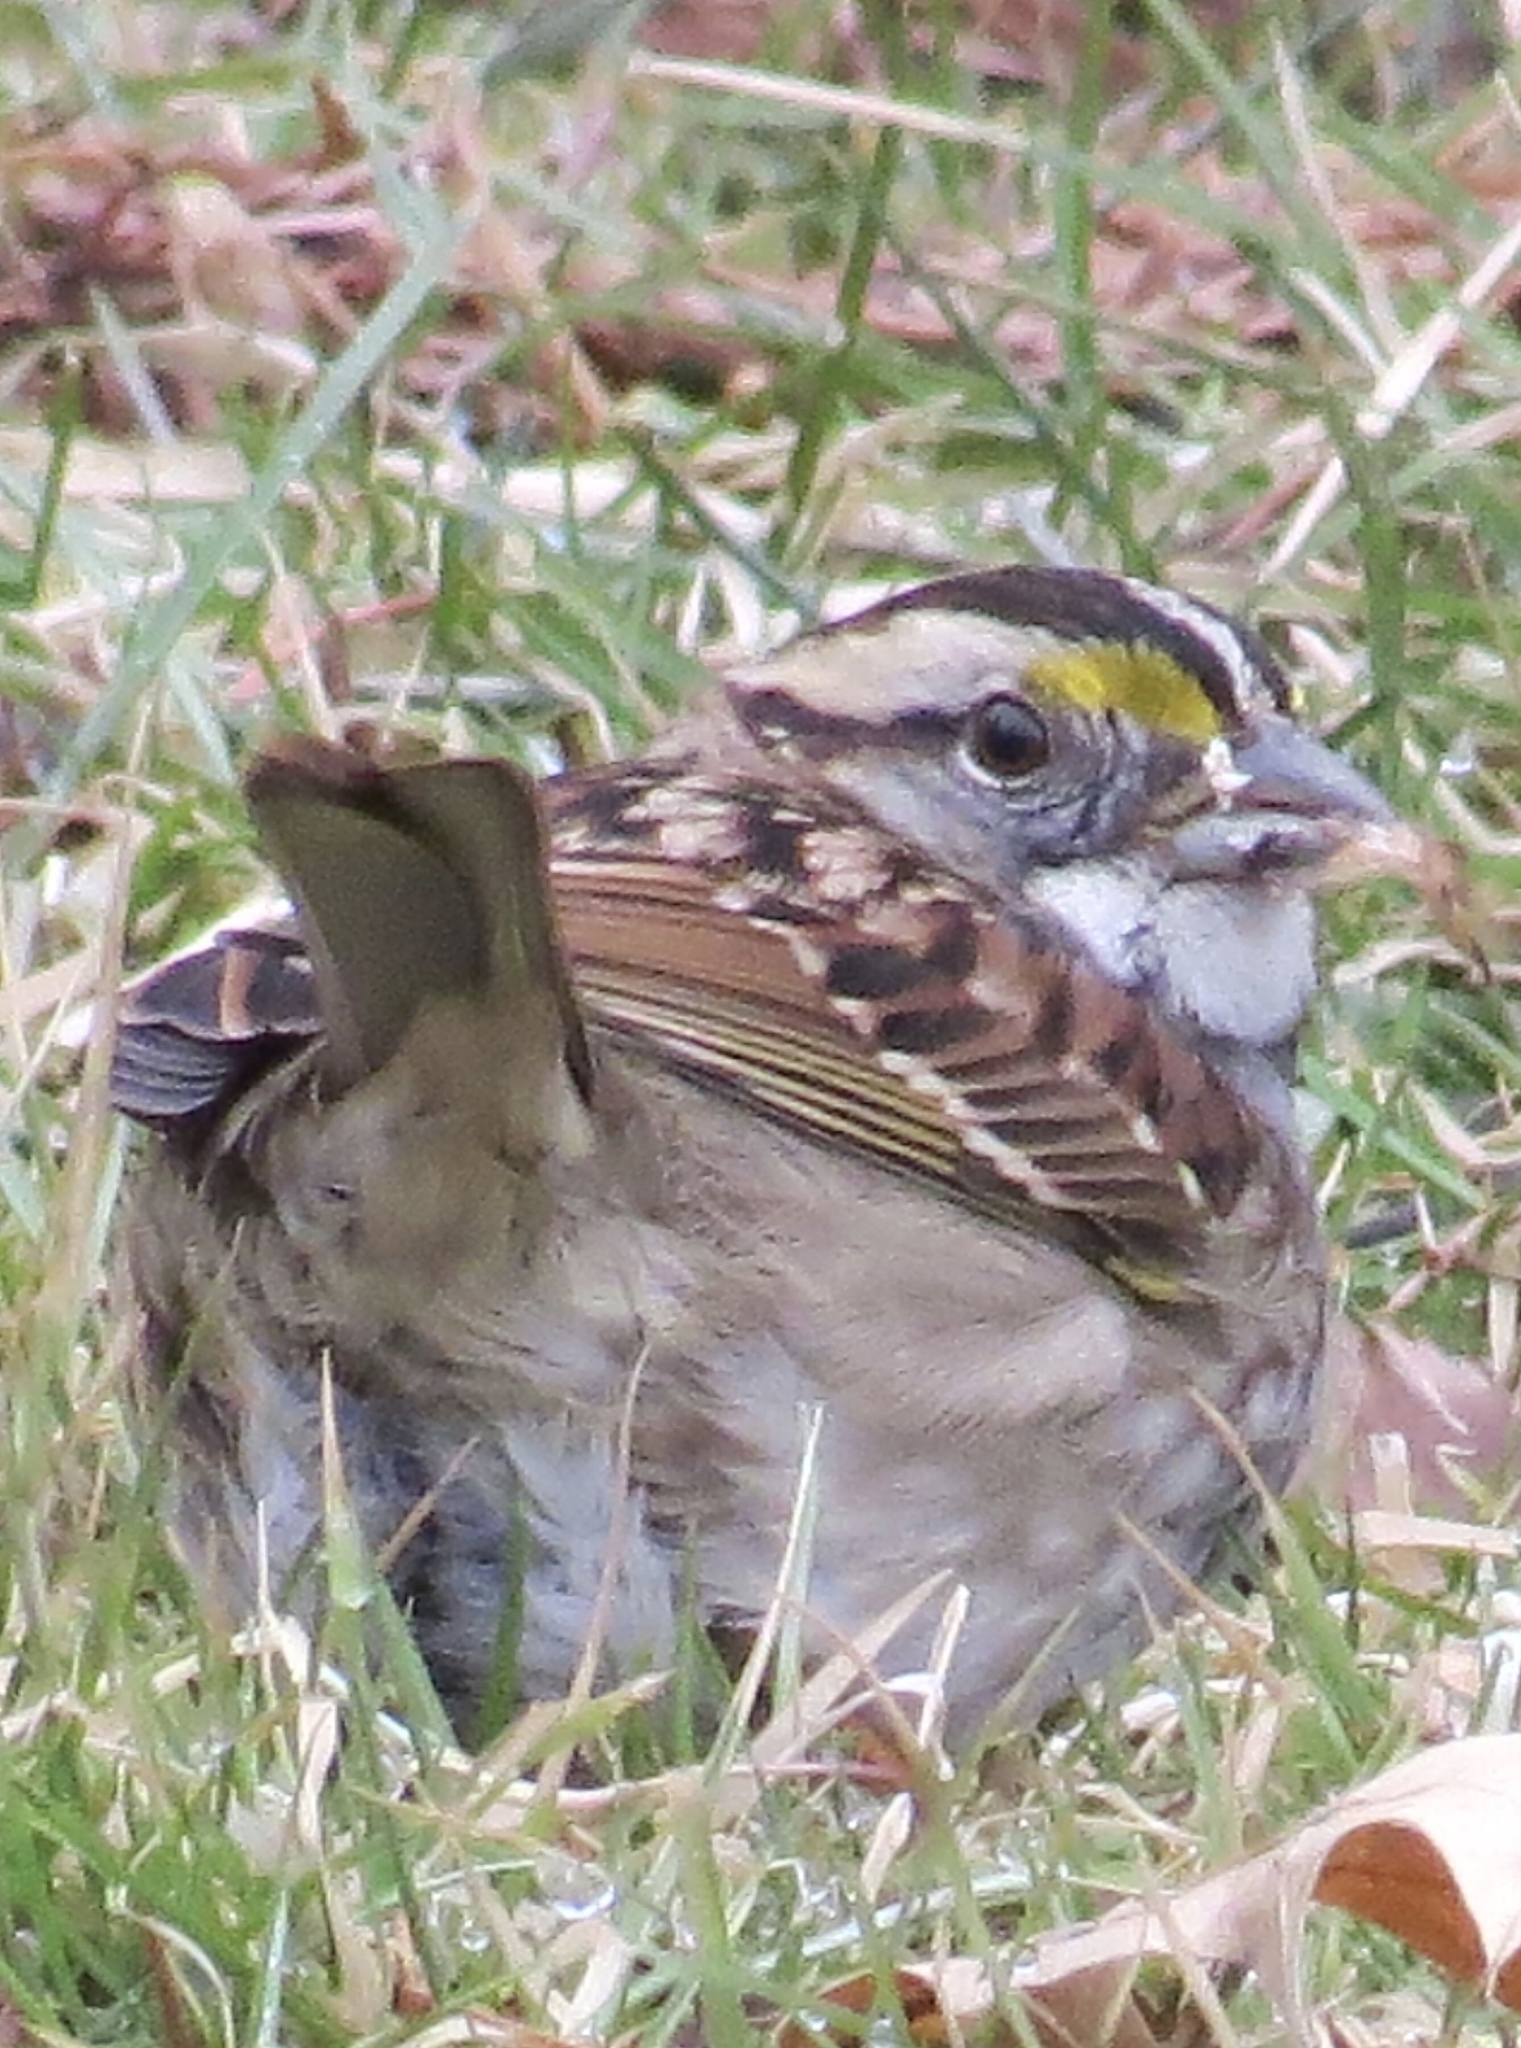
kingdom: Animalia
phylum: Chordata
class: Aves
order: Passeriformes
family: Passerellidae
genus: Zonotrichia
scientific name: Zonotrichia albicollis
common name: White-throated sparrow
